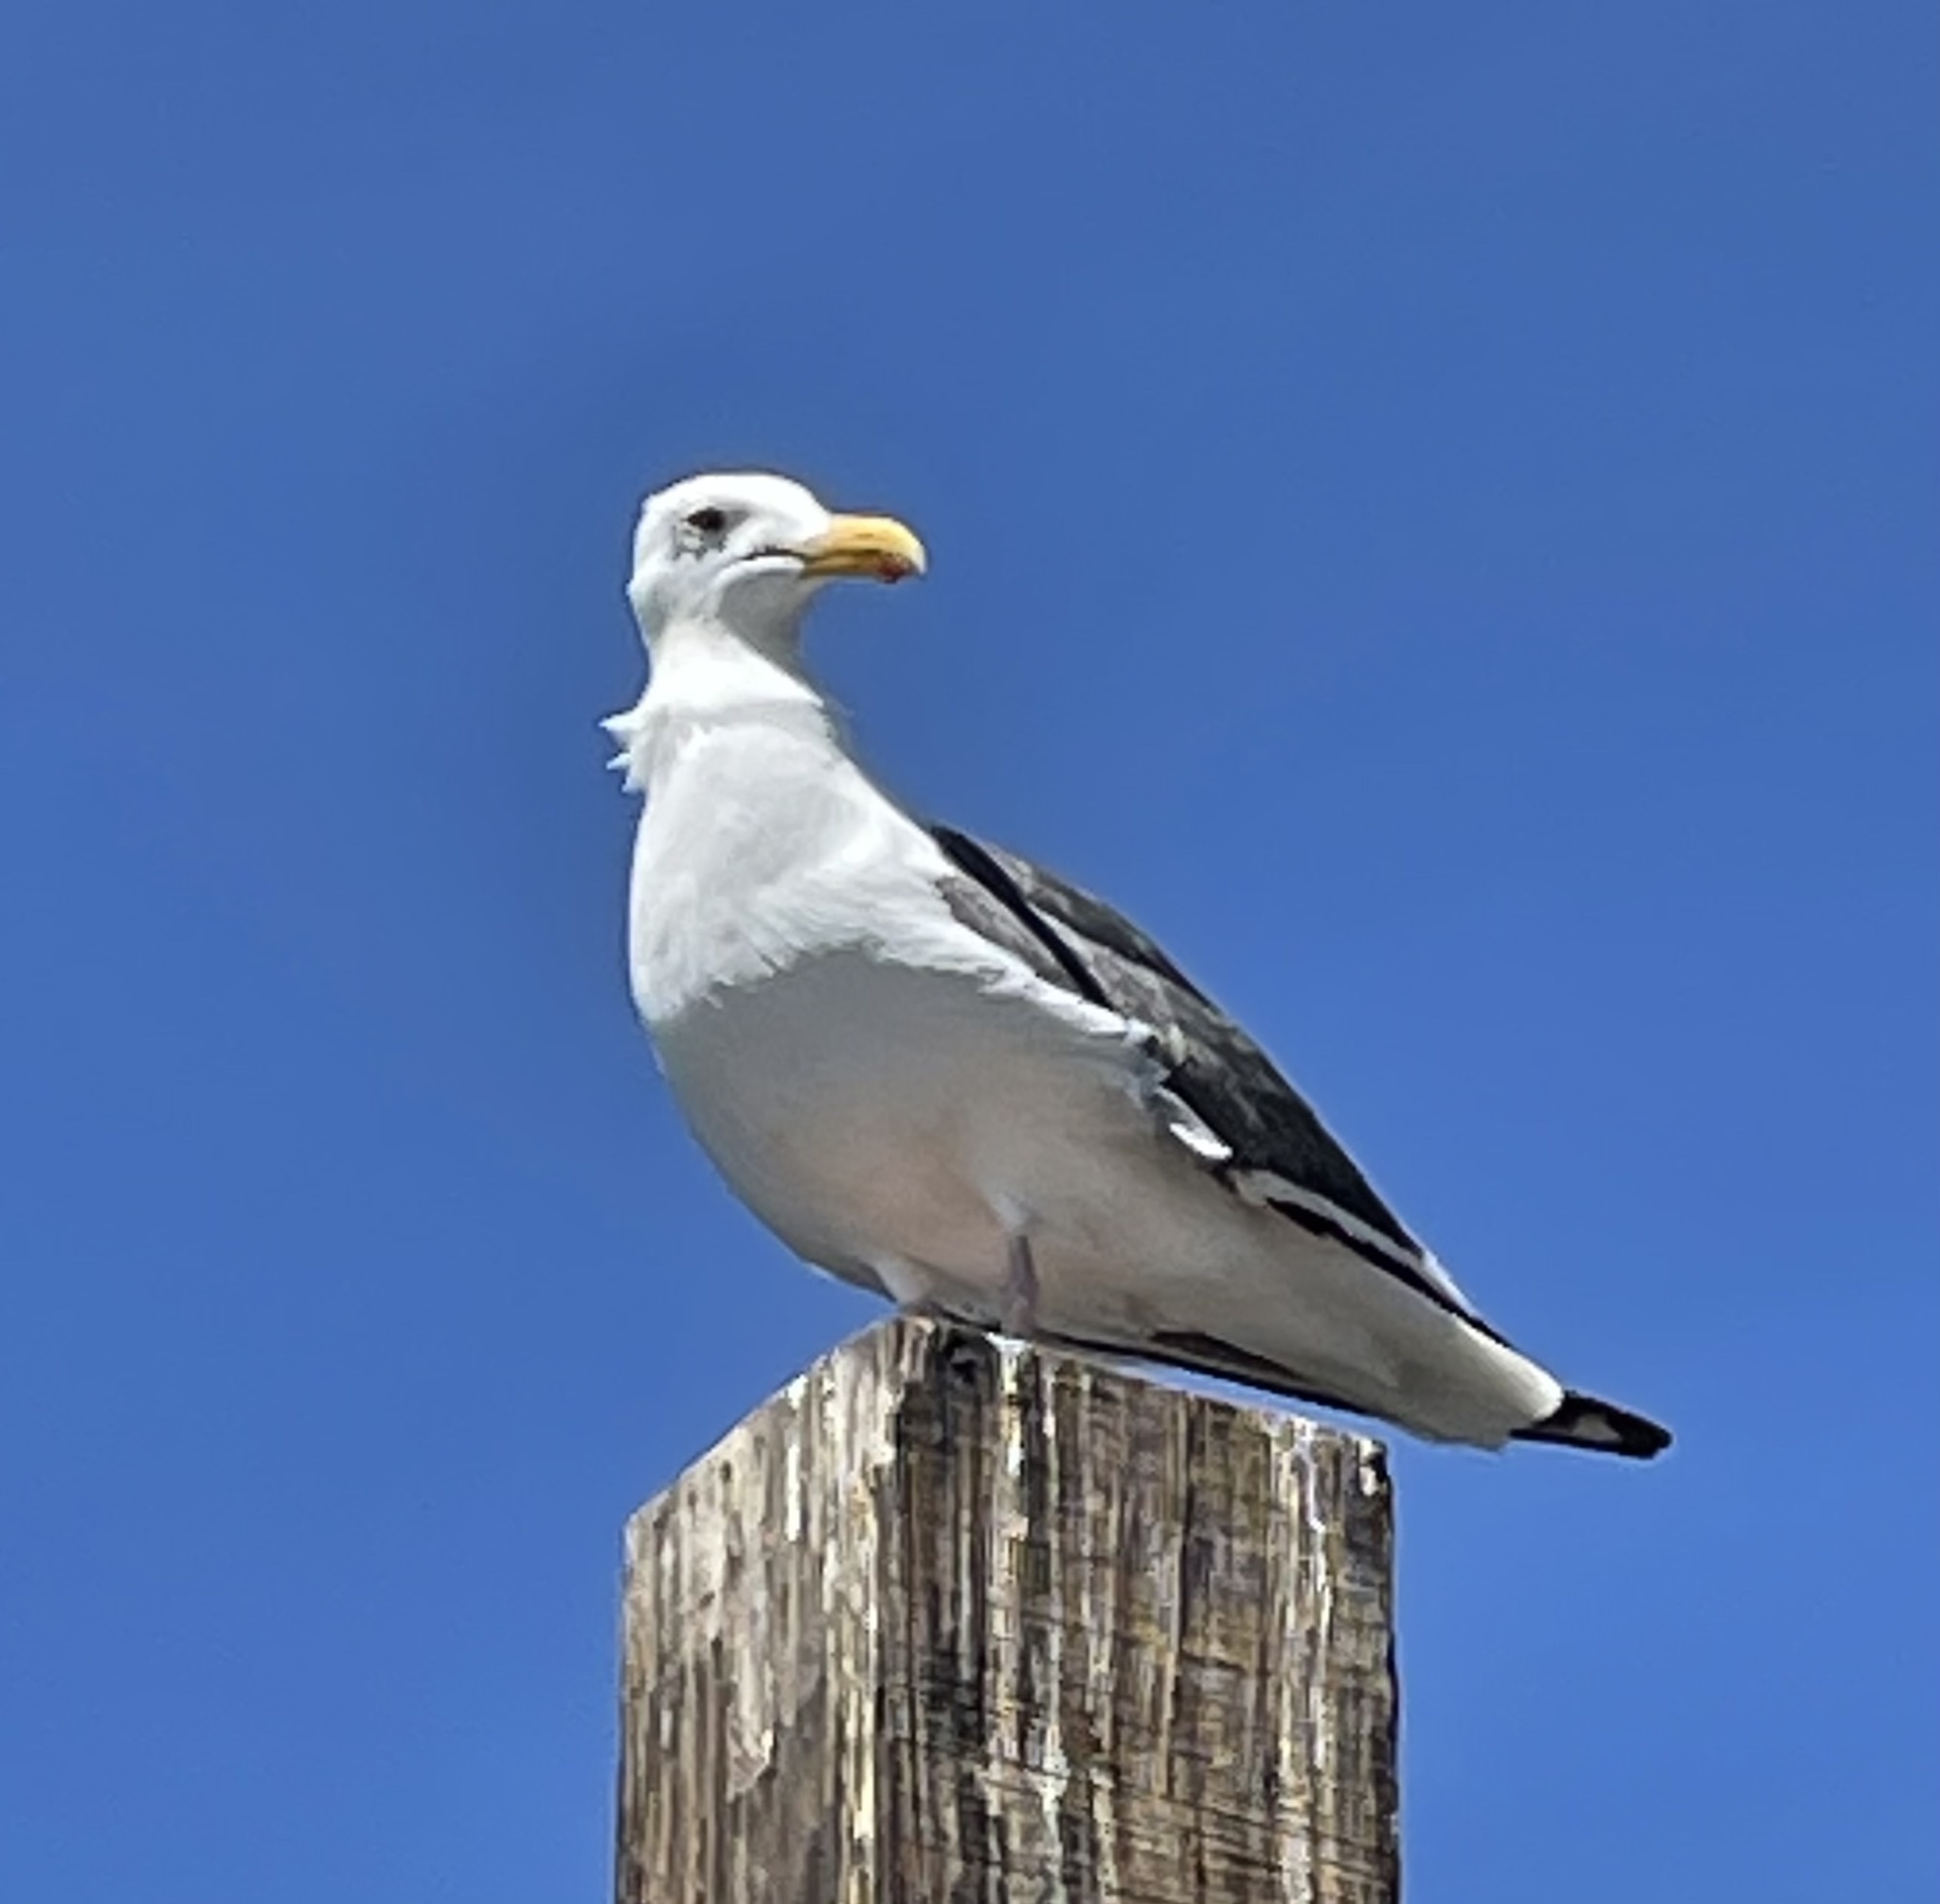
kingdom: Animalia
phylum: Chordata
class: Aves
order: Charadriiformes
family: Laridae
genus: Larus
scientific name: Larus occidentalis
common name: Western gull
